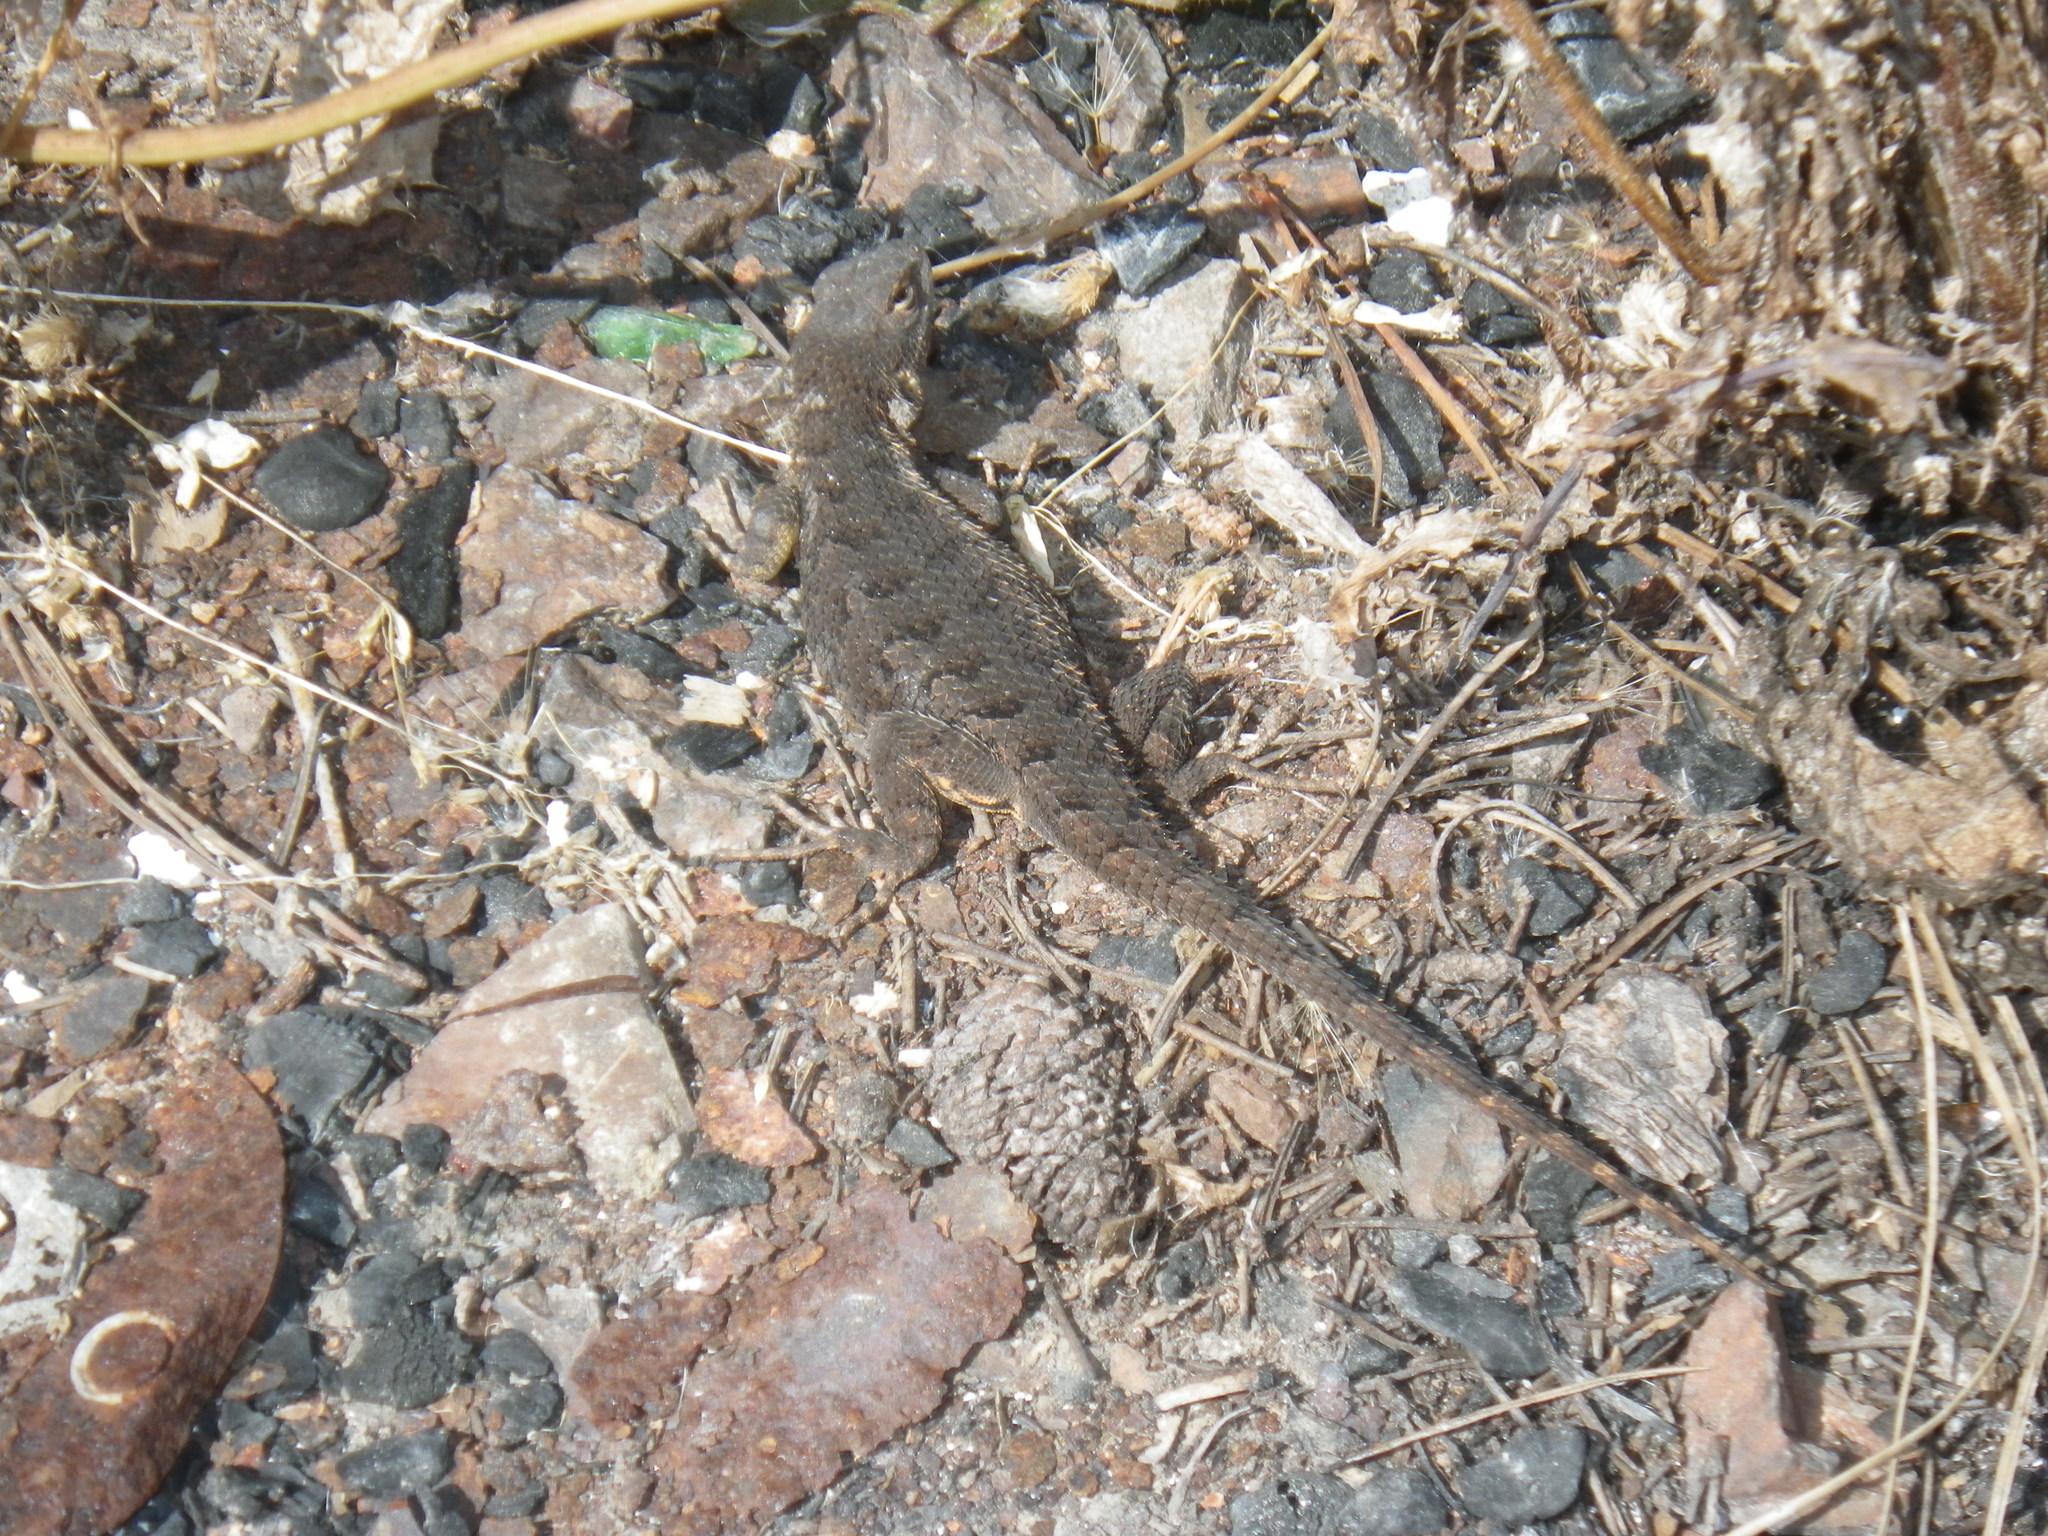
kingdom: Animalia
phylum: Chordata
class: Squamata
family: Phrynosomatidae
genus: Sceloporus
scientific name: Sceloporus occidentalis
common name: Western fence lizard
